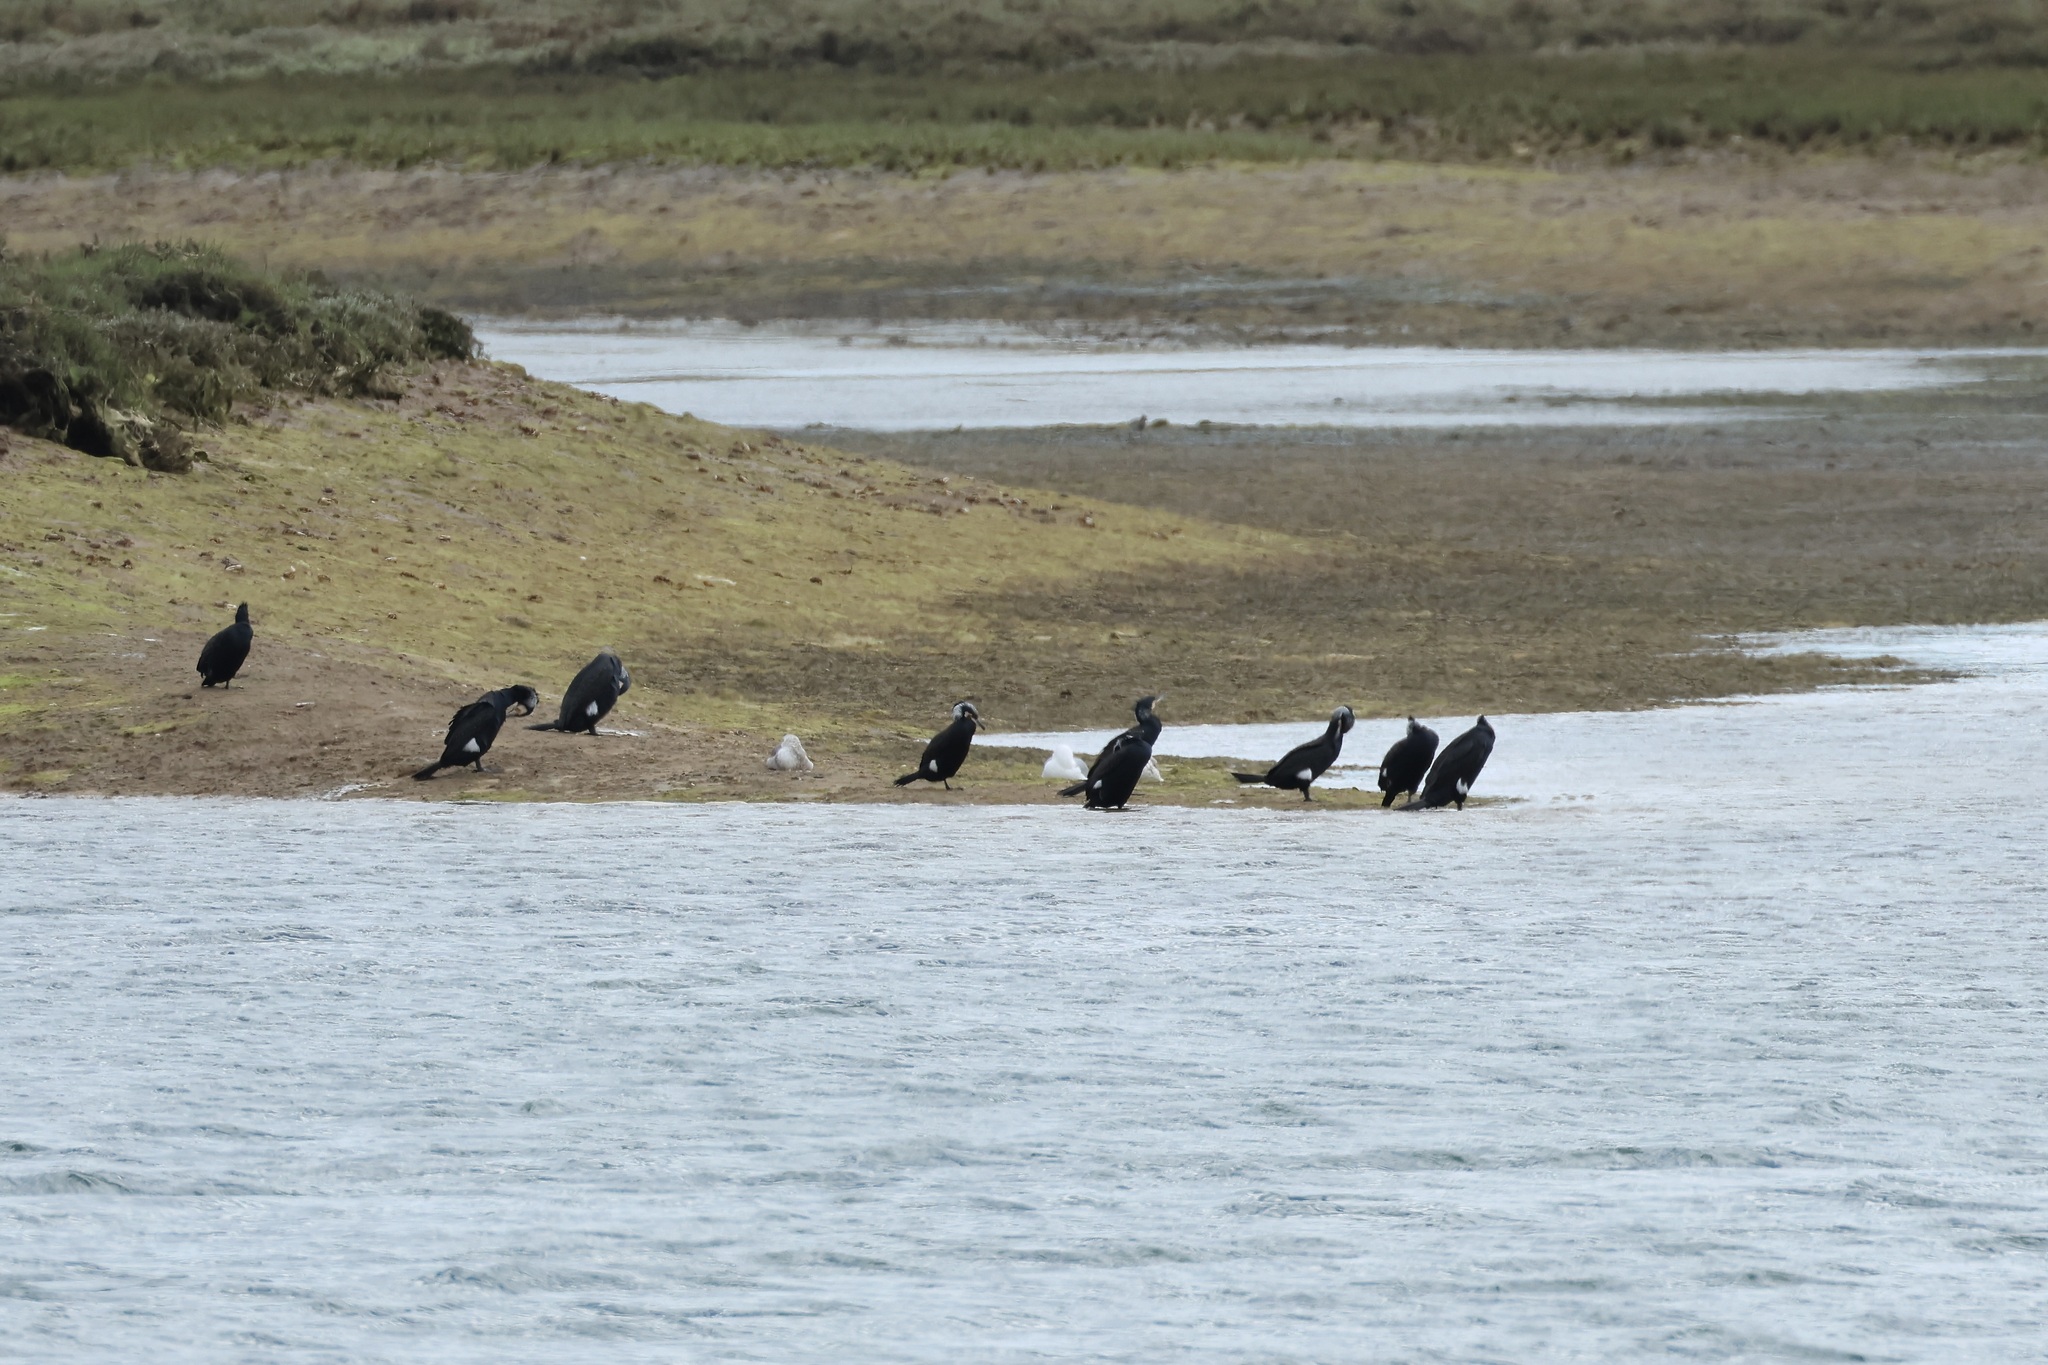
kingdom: Animalia
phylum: Chordata
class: Aves
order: Suliformes
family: Phalacrocoracidae
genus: Phalacrocorax
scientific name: Phalacrocorax carbo
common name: Great cormorant
